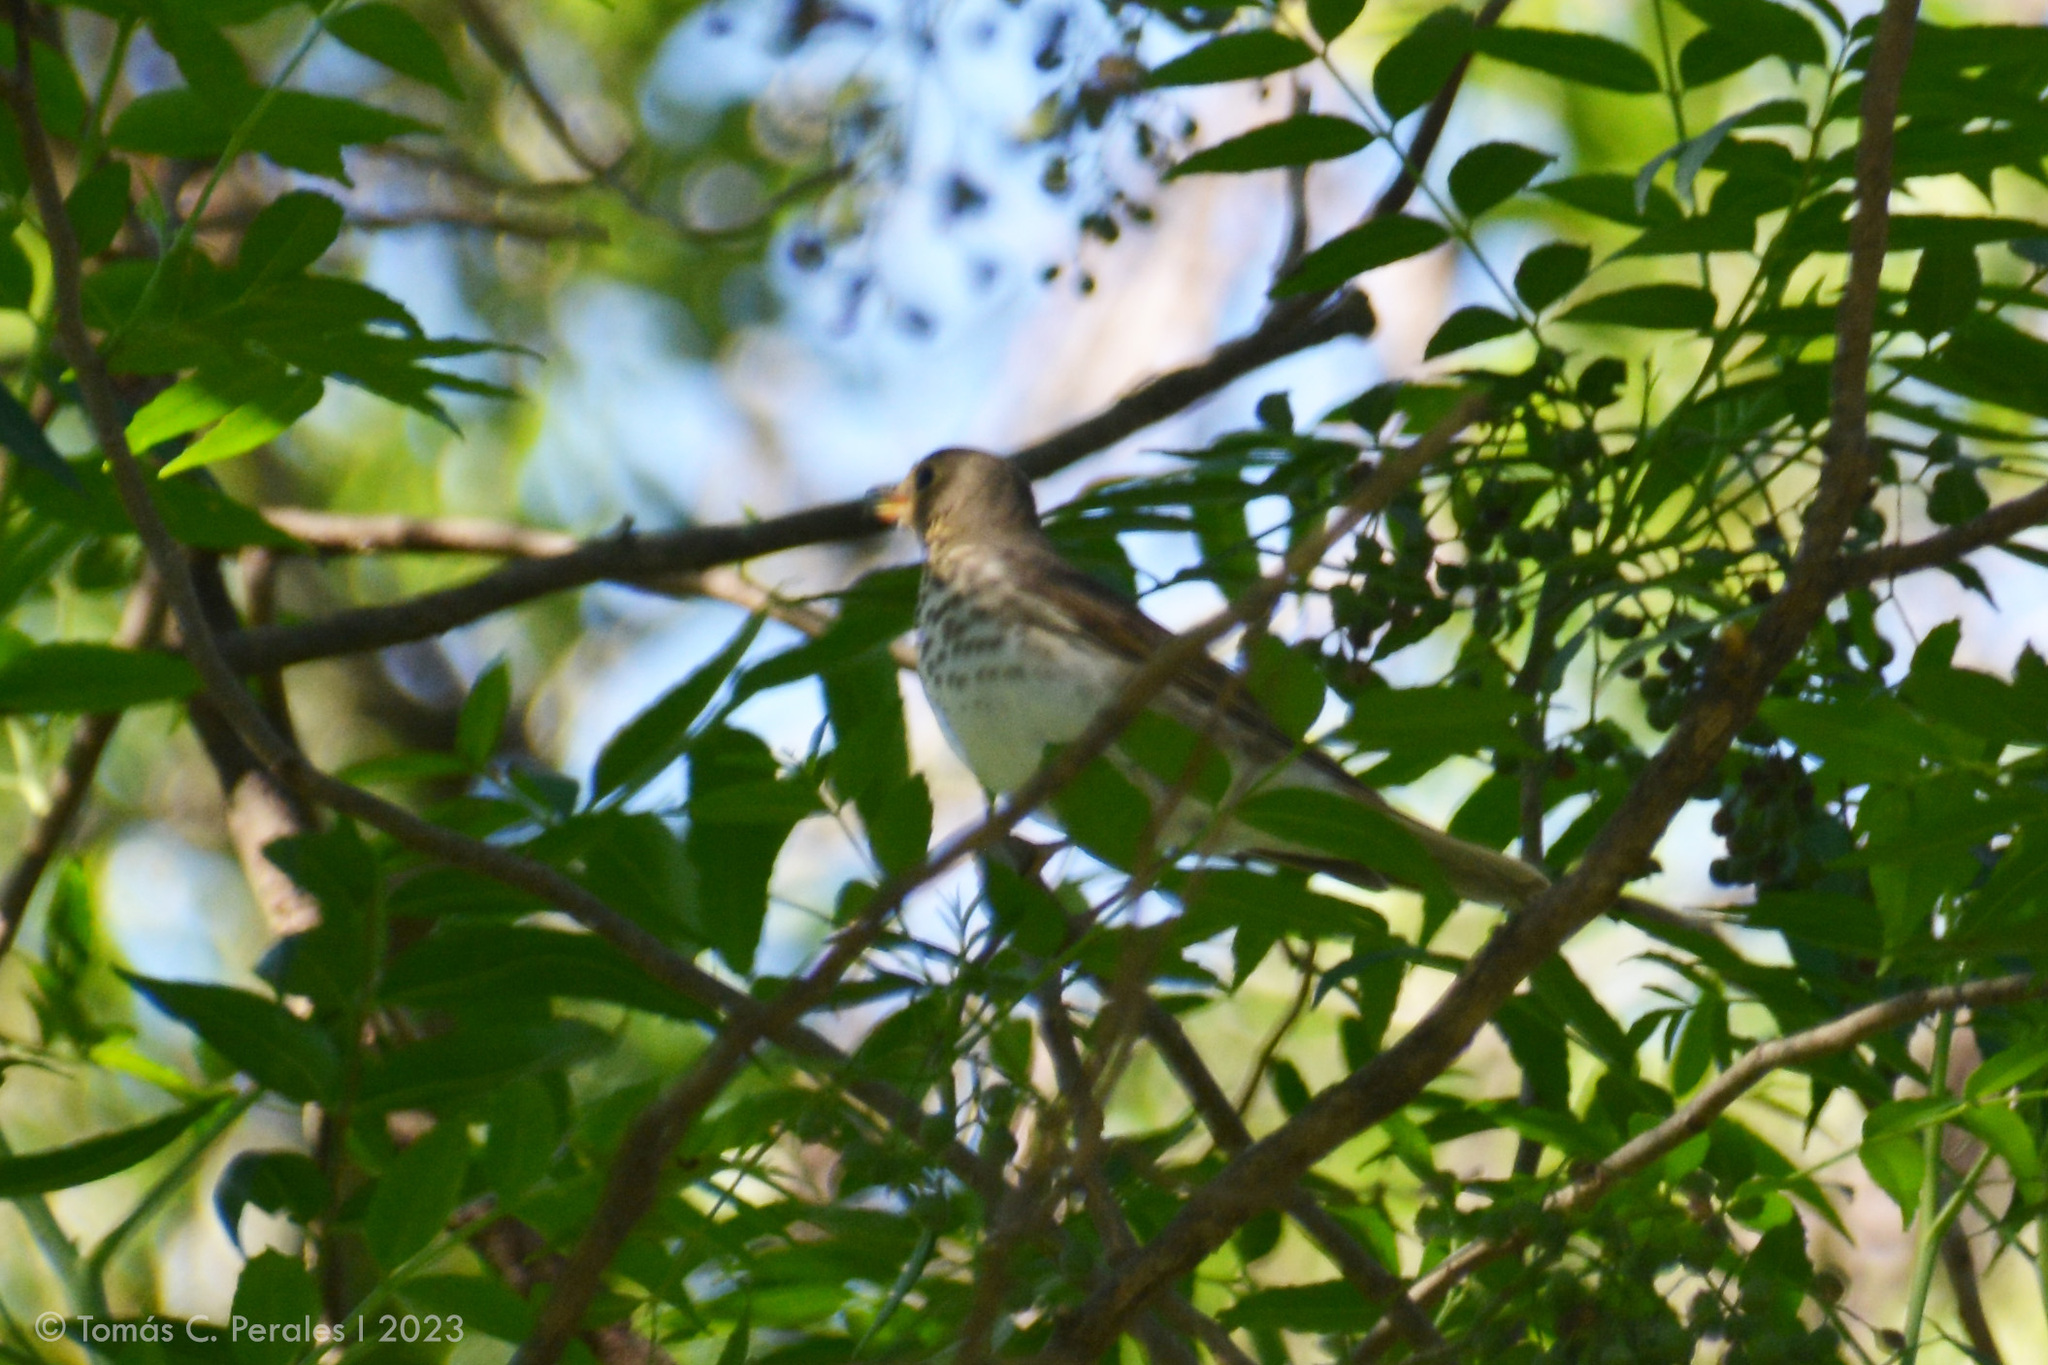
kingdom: Animalia
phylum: Chordata
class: Aves
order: Passeriformes
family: Turdidae
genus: Catharus
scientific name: Catharus ustulatus
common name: Swainson's thrush
